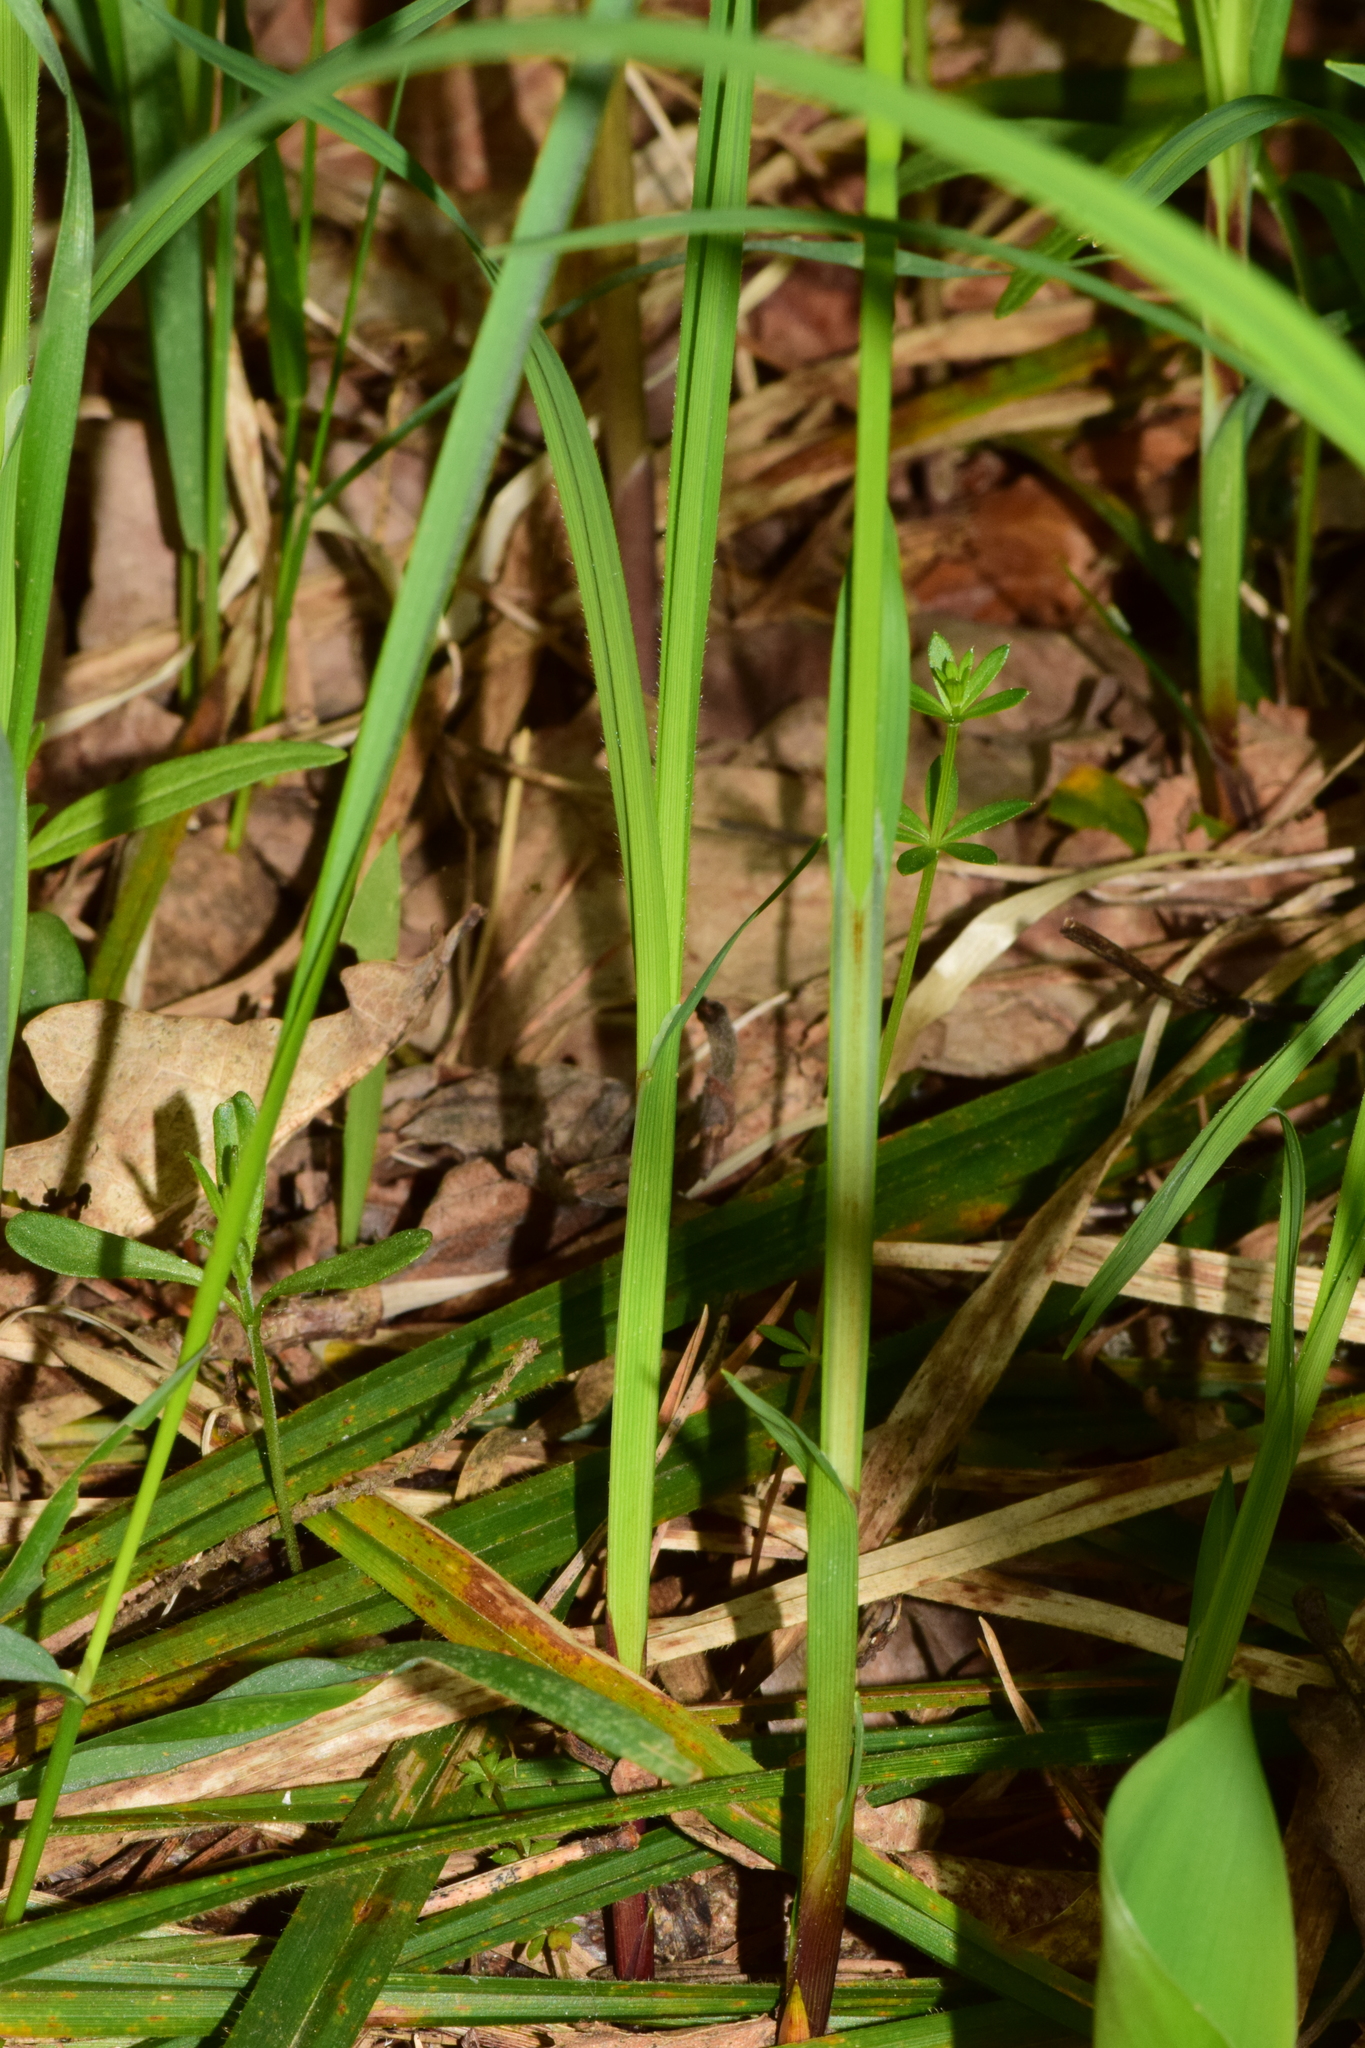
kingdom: Plantae
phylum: Tracheophyta
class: Liliopsida
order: Poales
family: Cyperaceae
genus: Carex
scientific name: Carex pilosa
